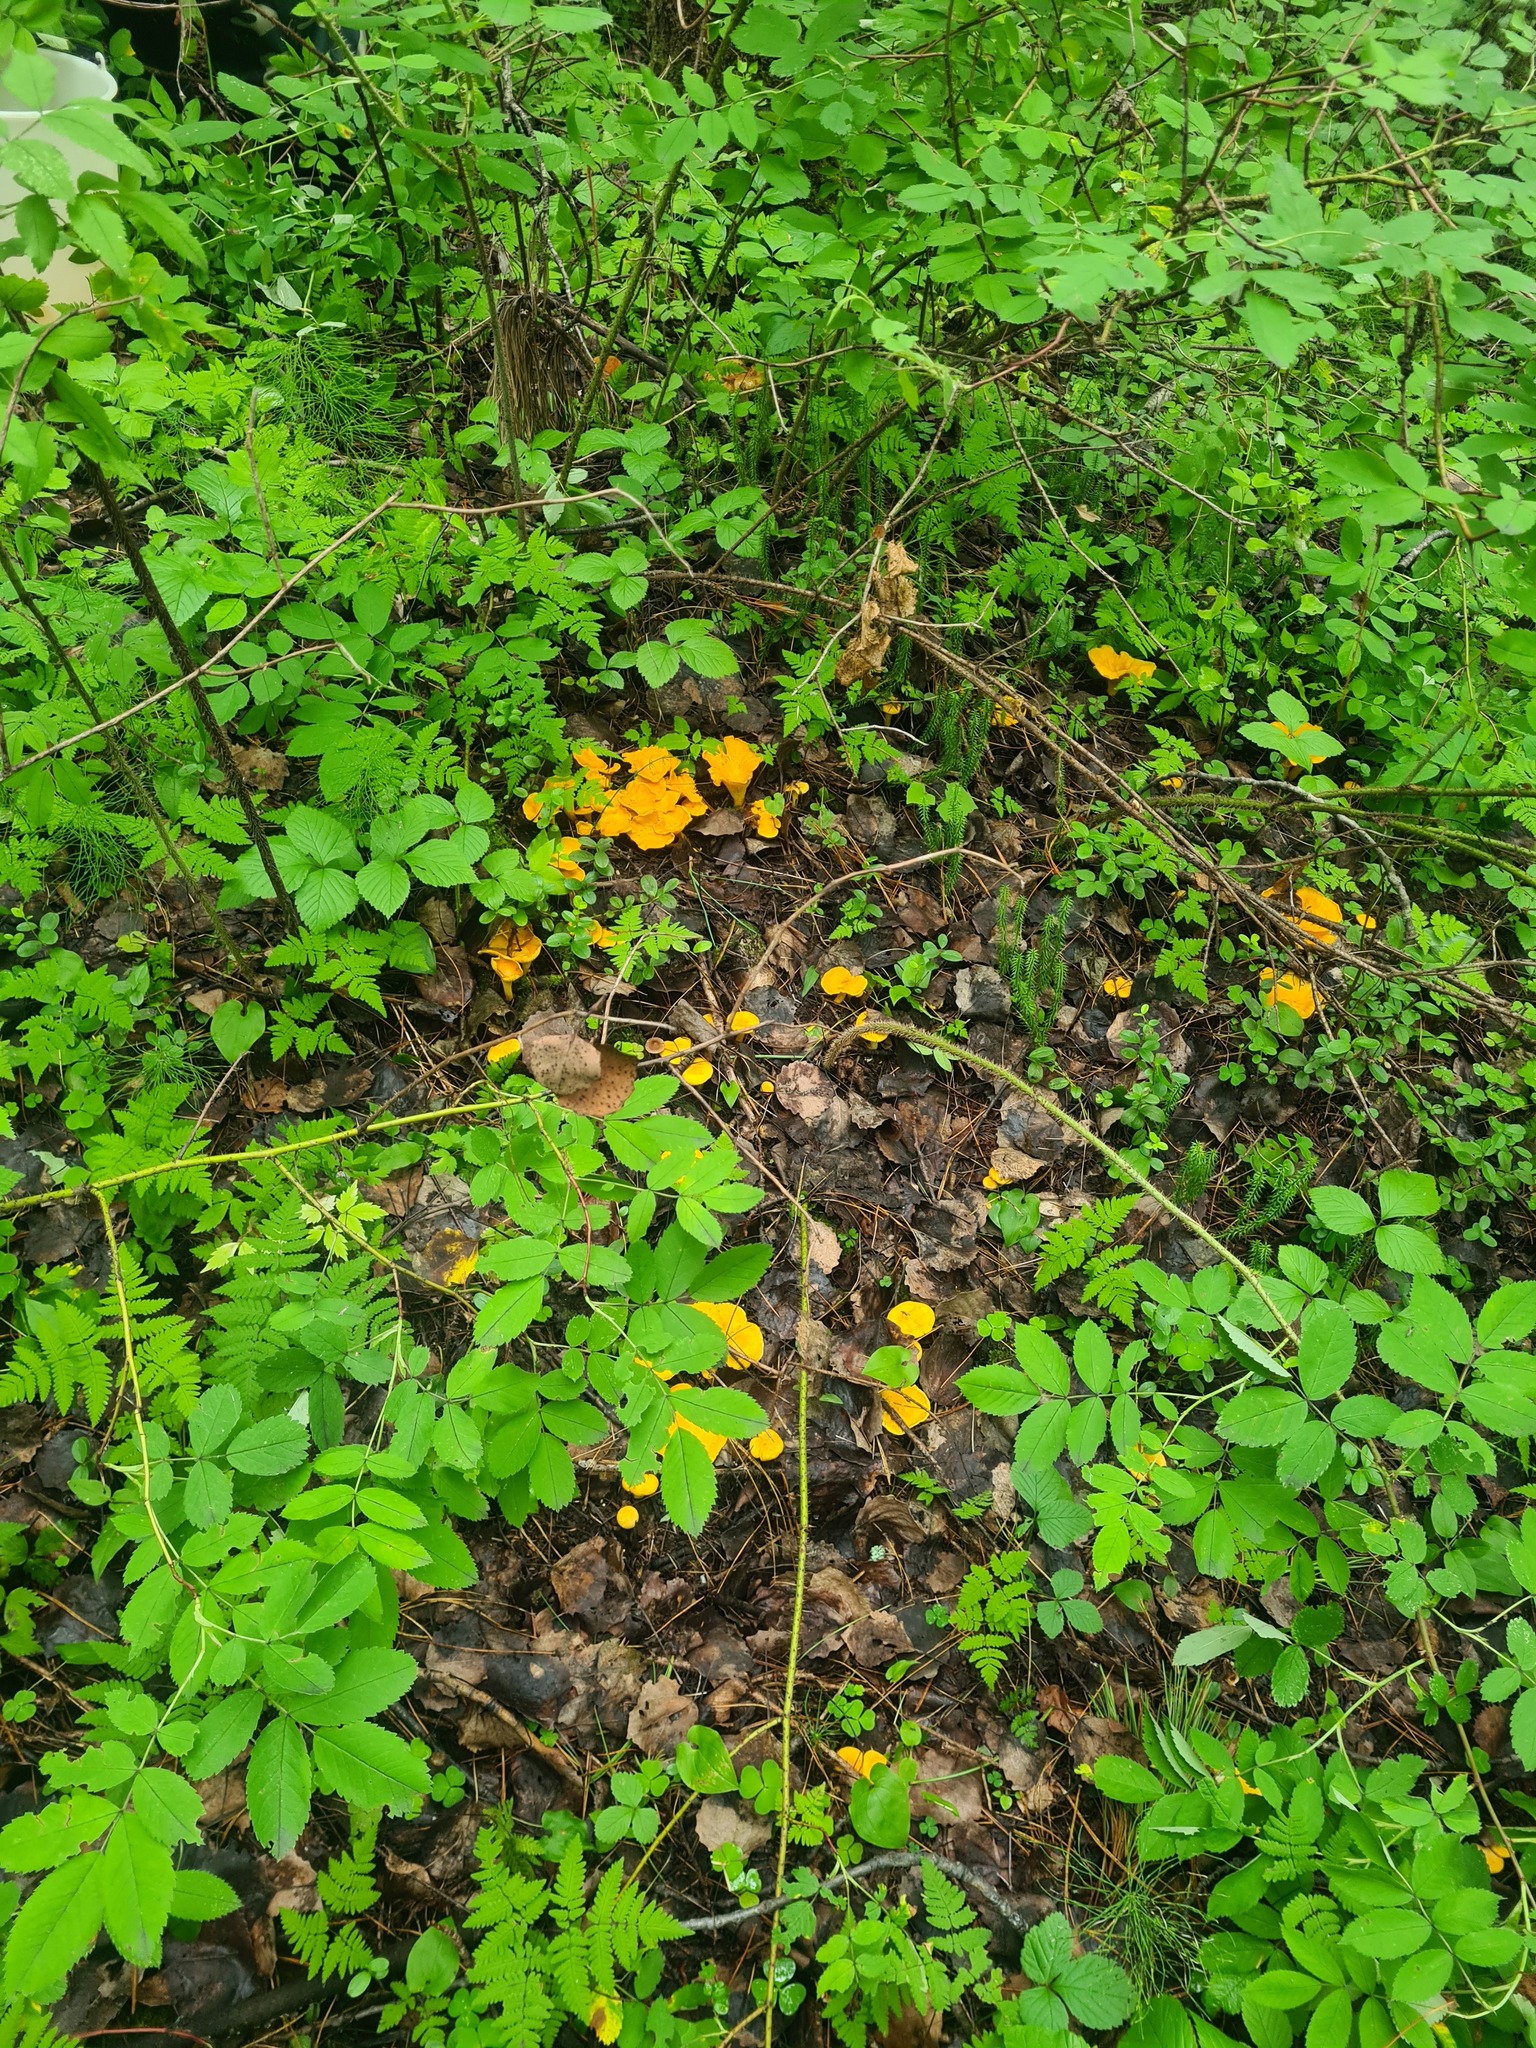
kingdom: Fungi
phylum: Basidiomycota
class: Agaricomycetes
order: Cantharellales
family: Hydnaceae
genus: Cantharellus
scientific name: Cantharellus cibarius
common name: Chanterelle
